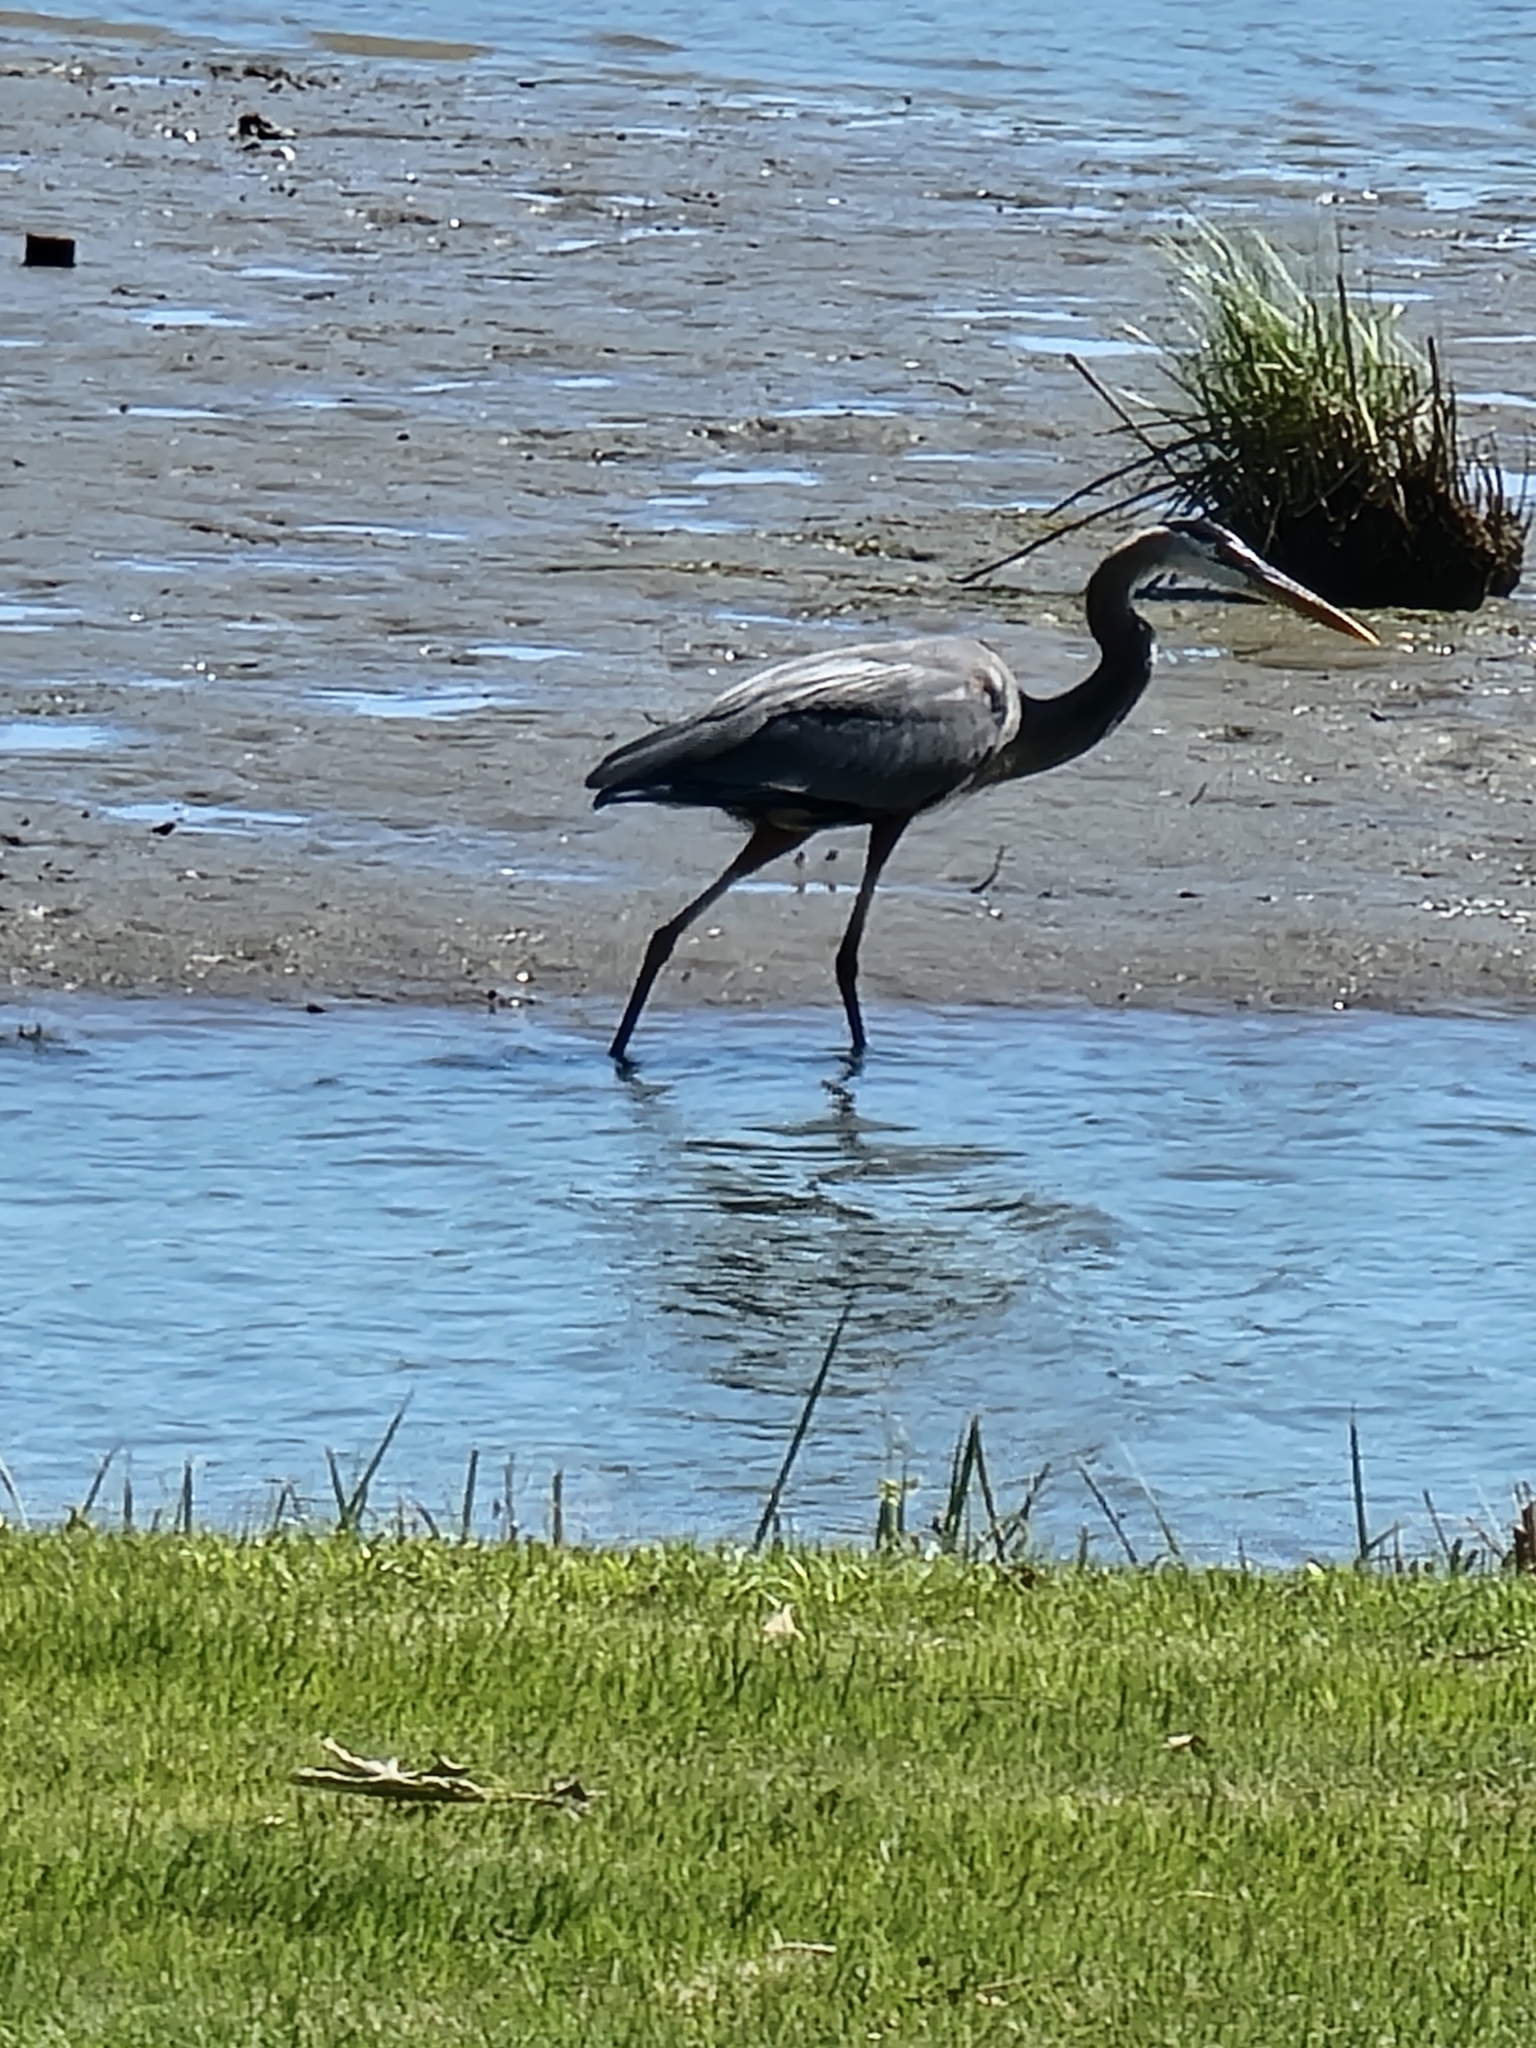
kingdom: Animalia
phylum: Chordata
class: Aves
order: Pelecaniformes
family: Ardeidae
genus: Ardea
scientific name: Ardea herodias
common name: Great blue heron
